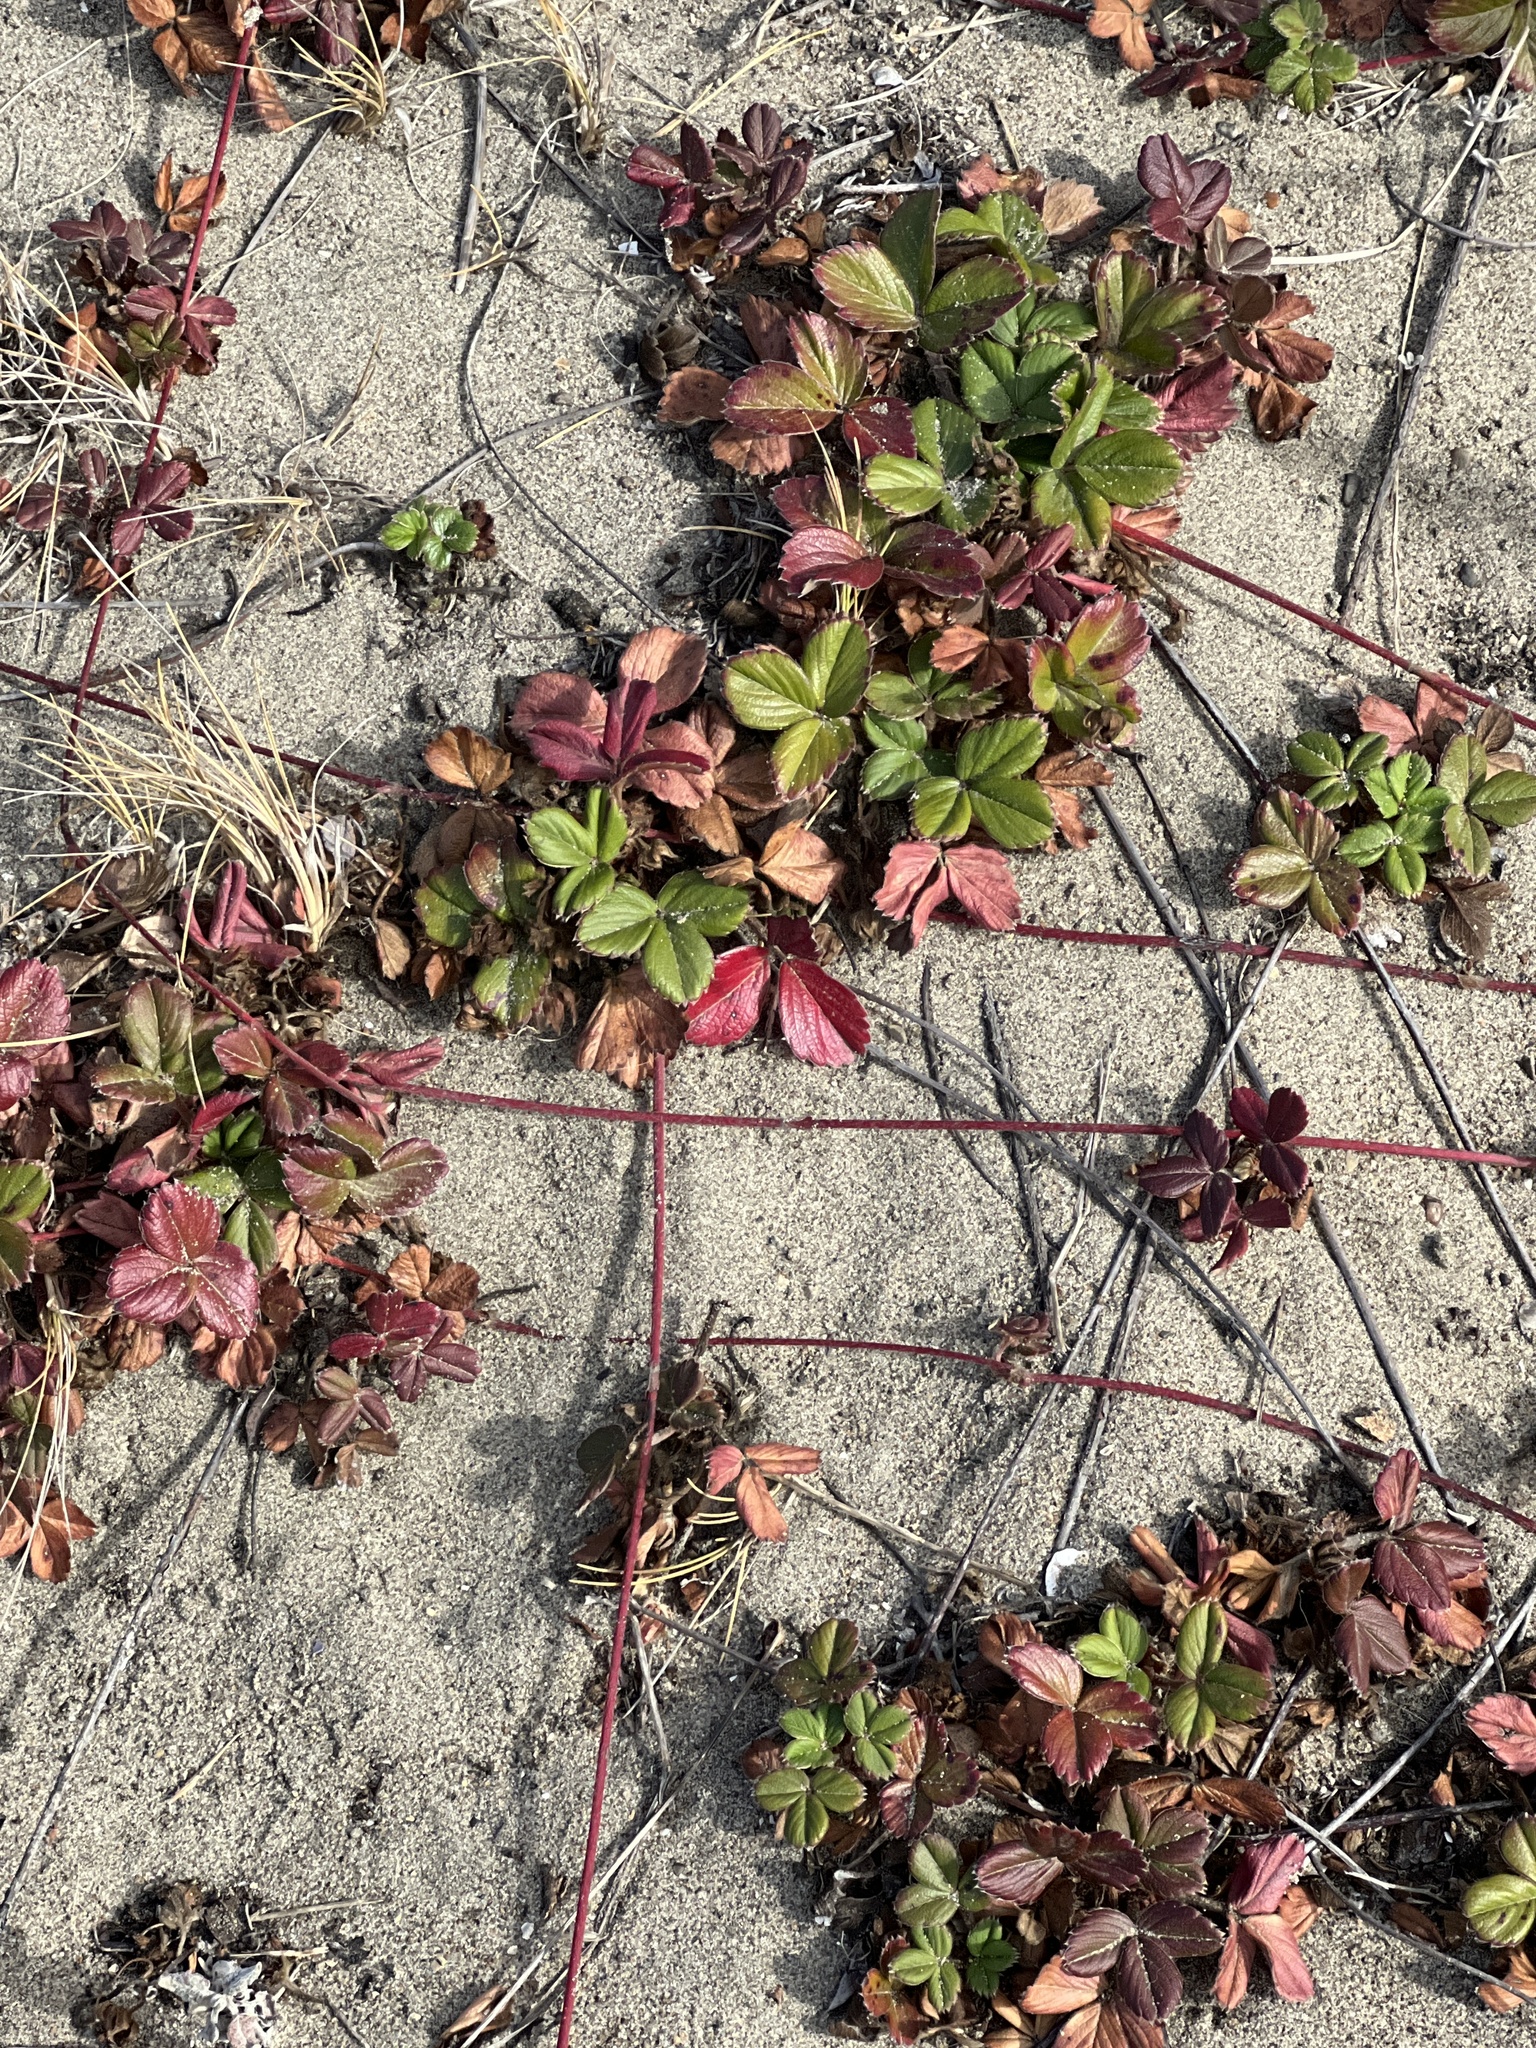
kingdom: Plantae
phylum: Tracheophyta
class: Magnoliopsida
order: Rosales
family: Rosaceae
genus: Fragaria
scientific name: Fragaria chiloensis
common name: Beach strawberry
